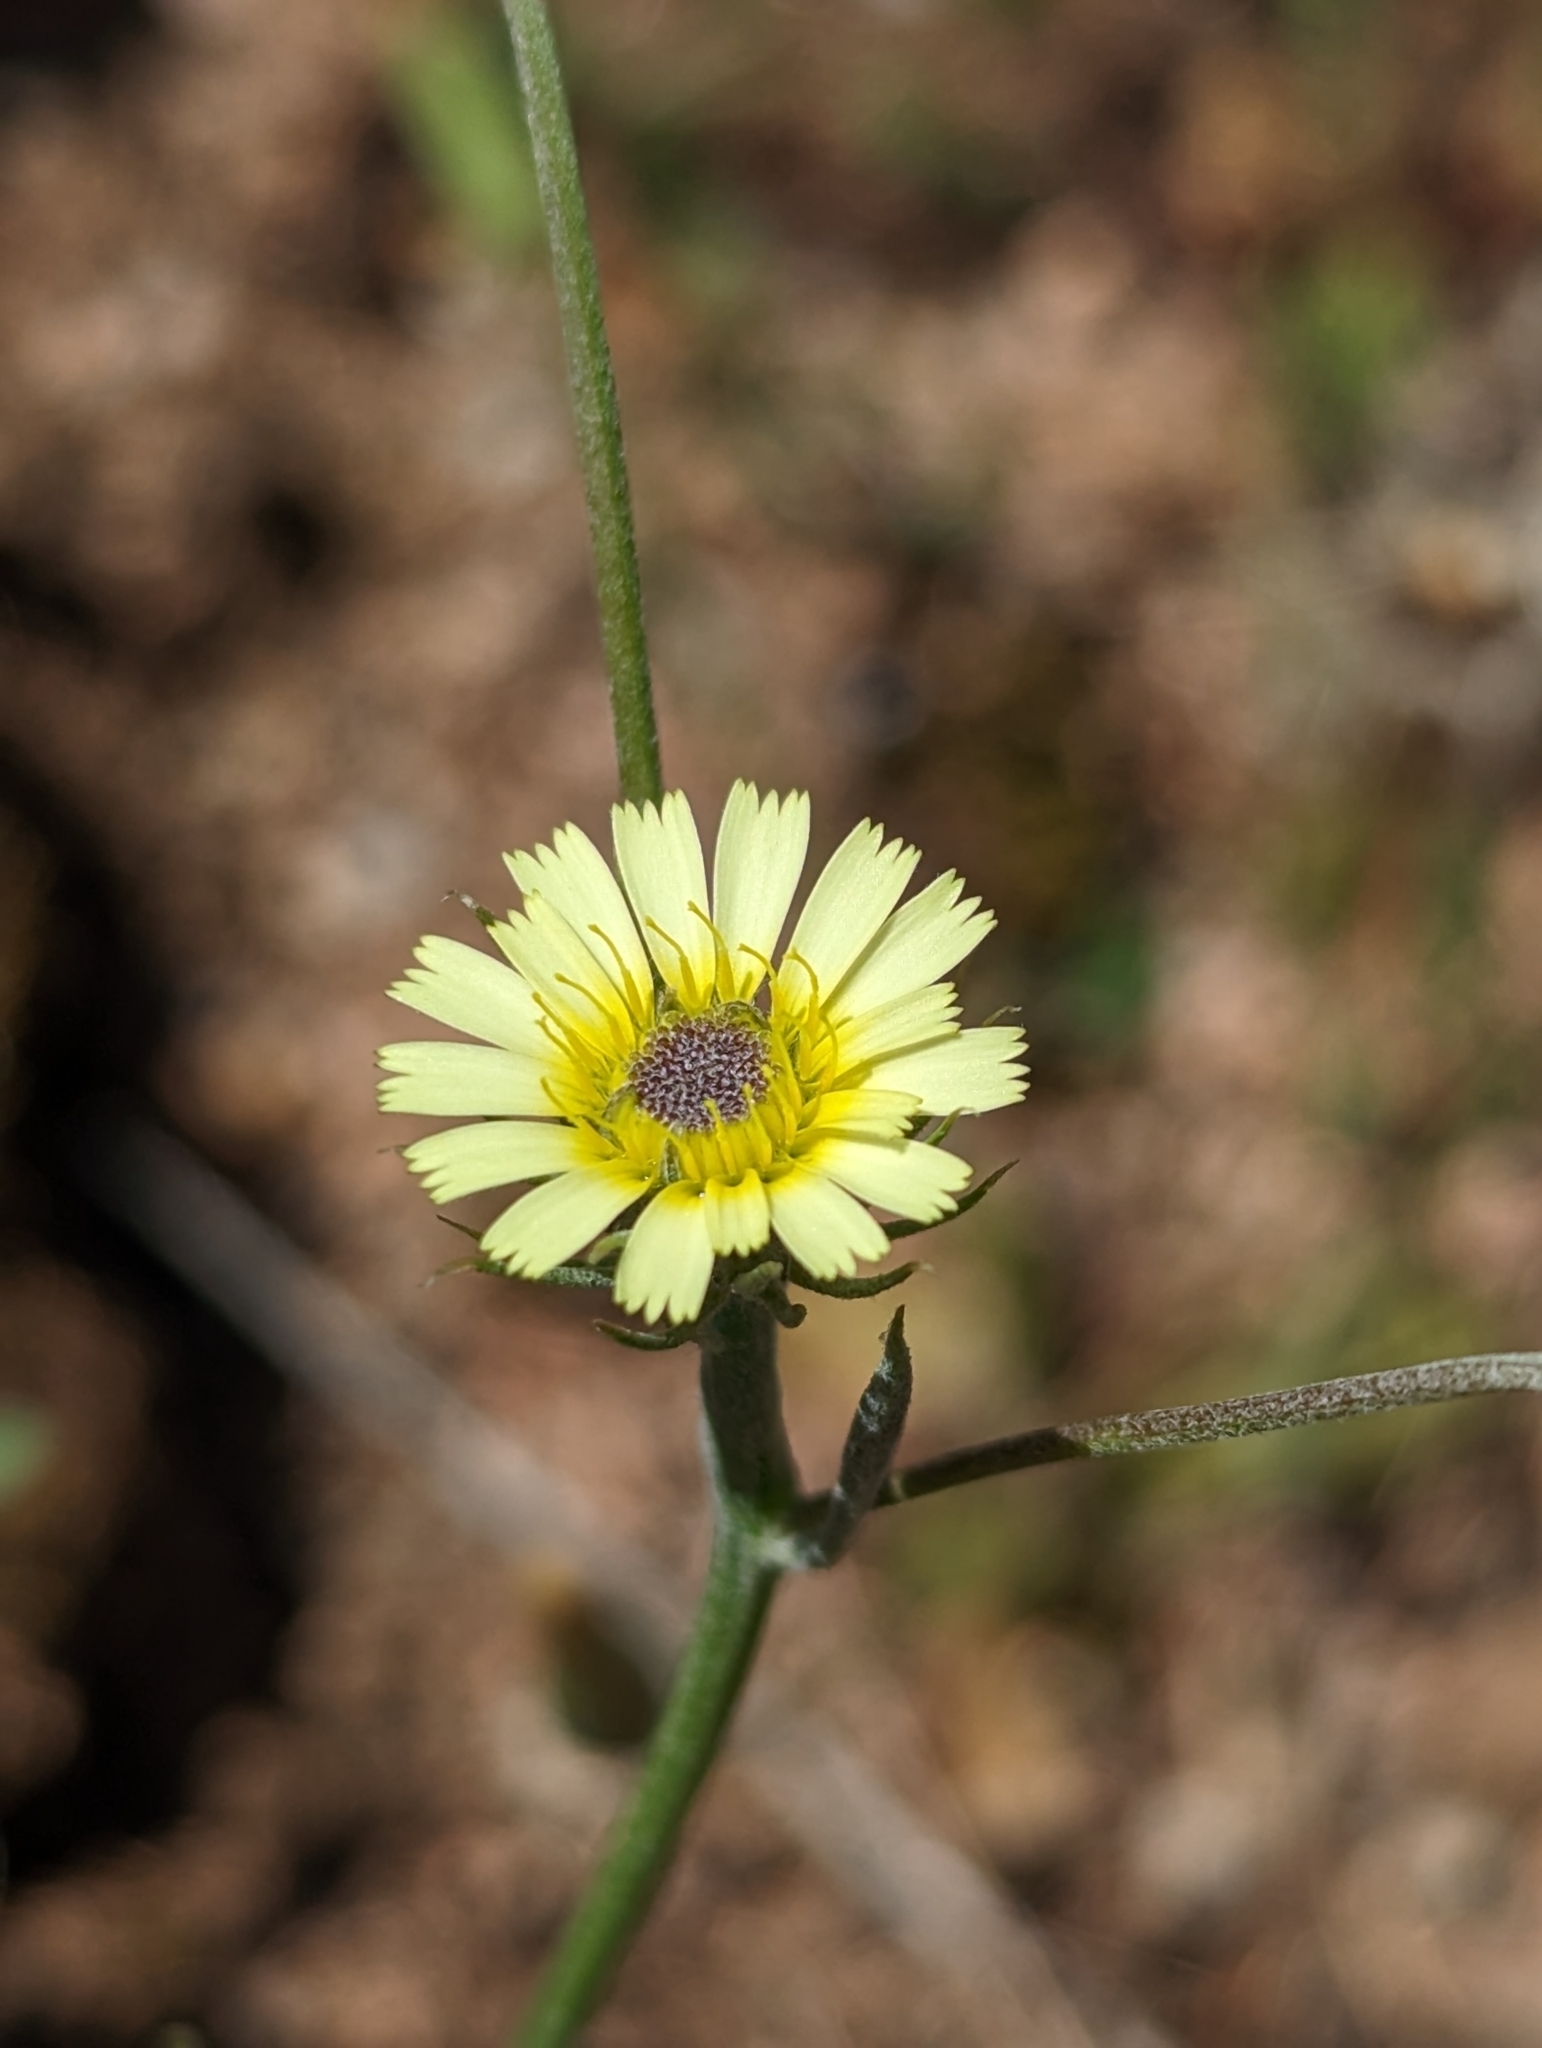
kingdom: Plantae
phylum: Tracheophyta
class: Magnoliopsida
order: Asterales
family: Asteraceae
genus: Tolpis
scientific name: Tolpis umbellata
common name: Yellow hawkweed
